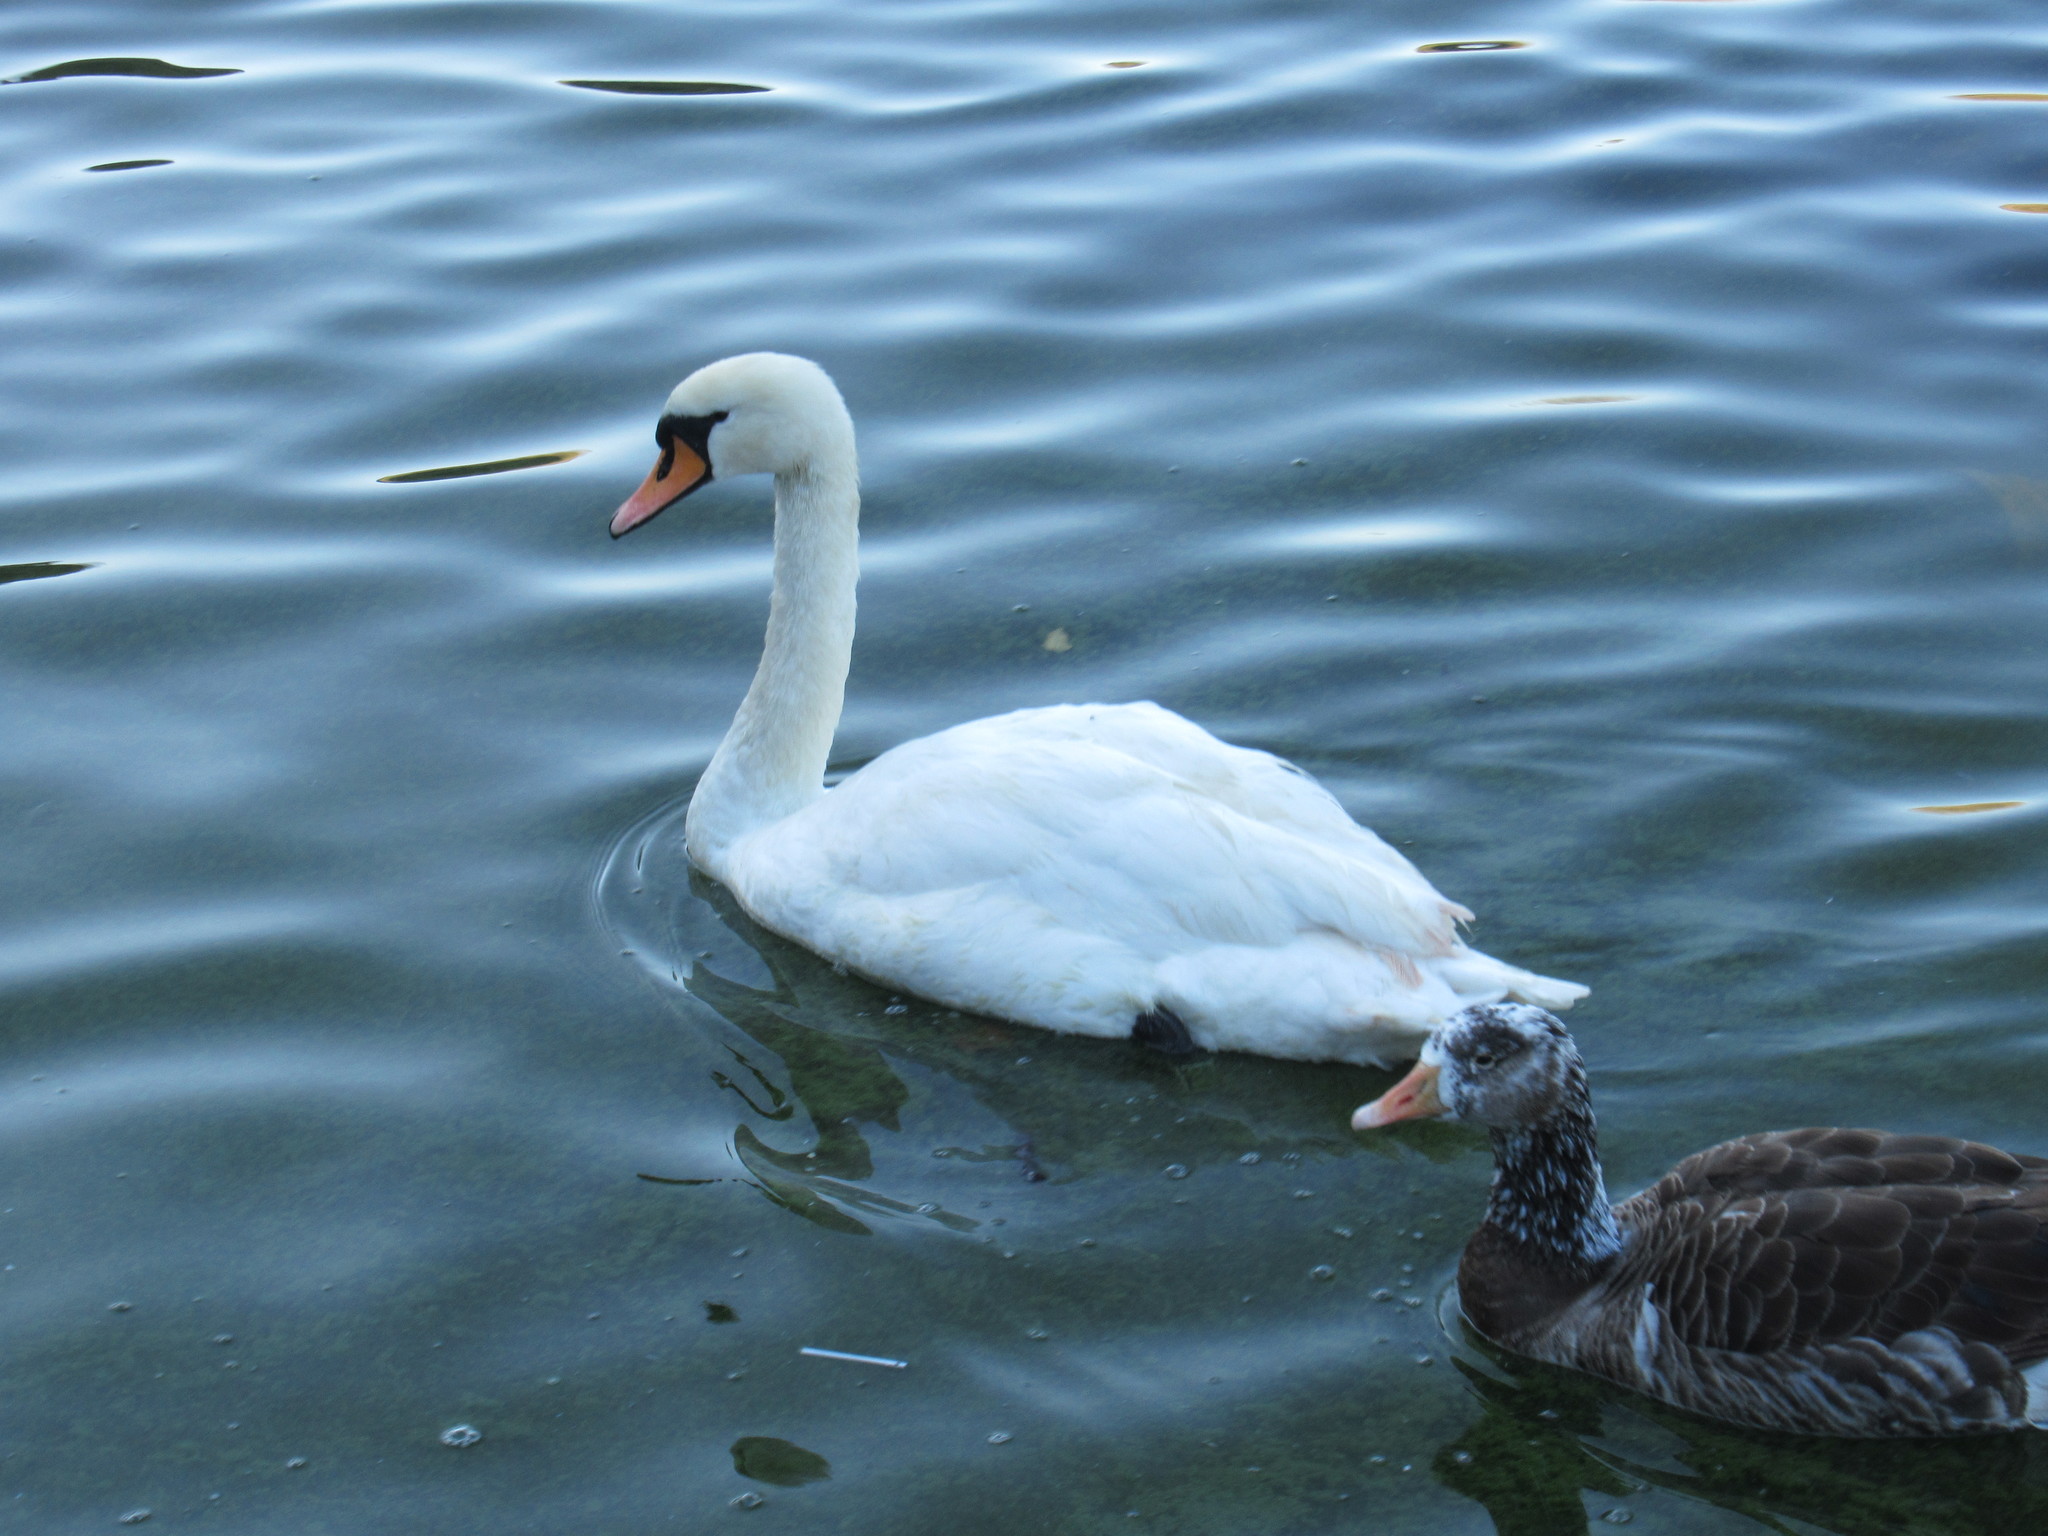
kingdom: Animalia
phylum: Chordata
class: Aves
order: Anseriformes
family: Anatidae
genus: Cygnus
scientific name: Cygnus olor
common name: Mute swan
